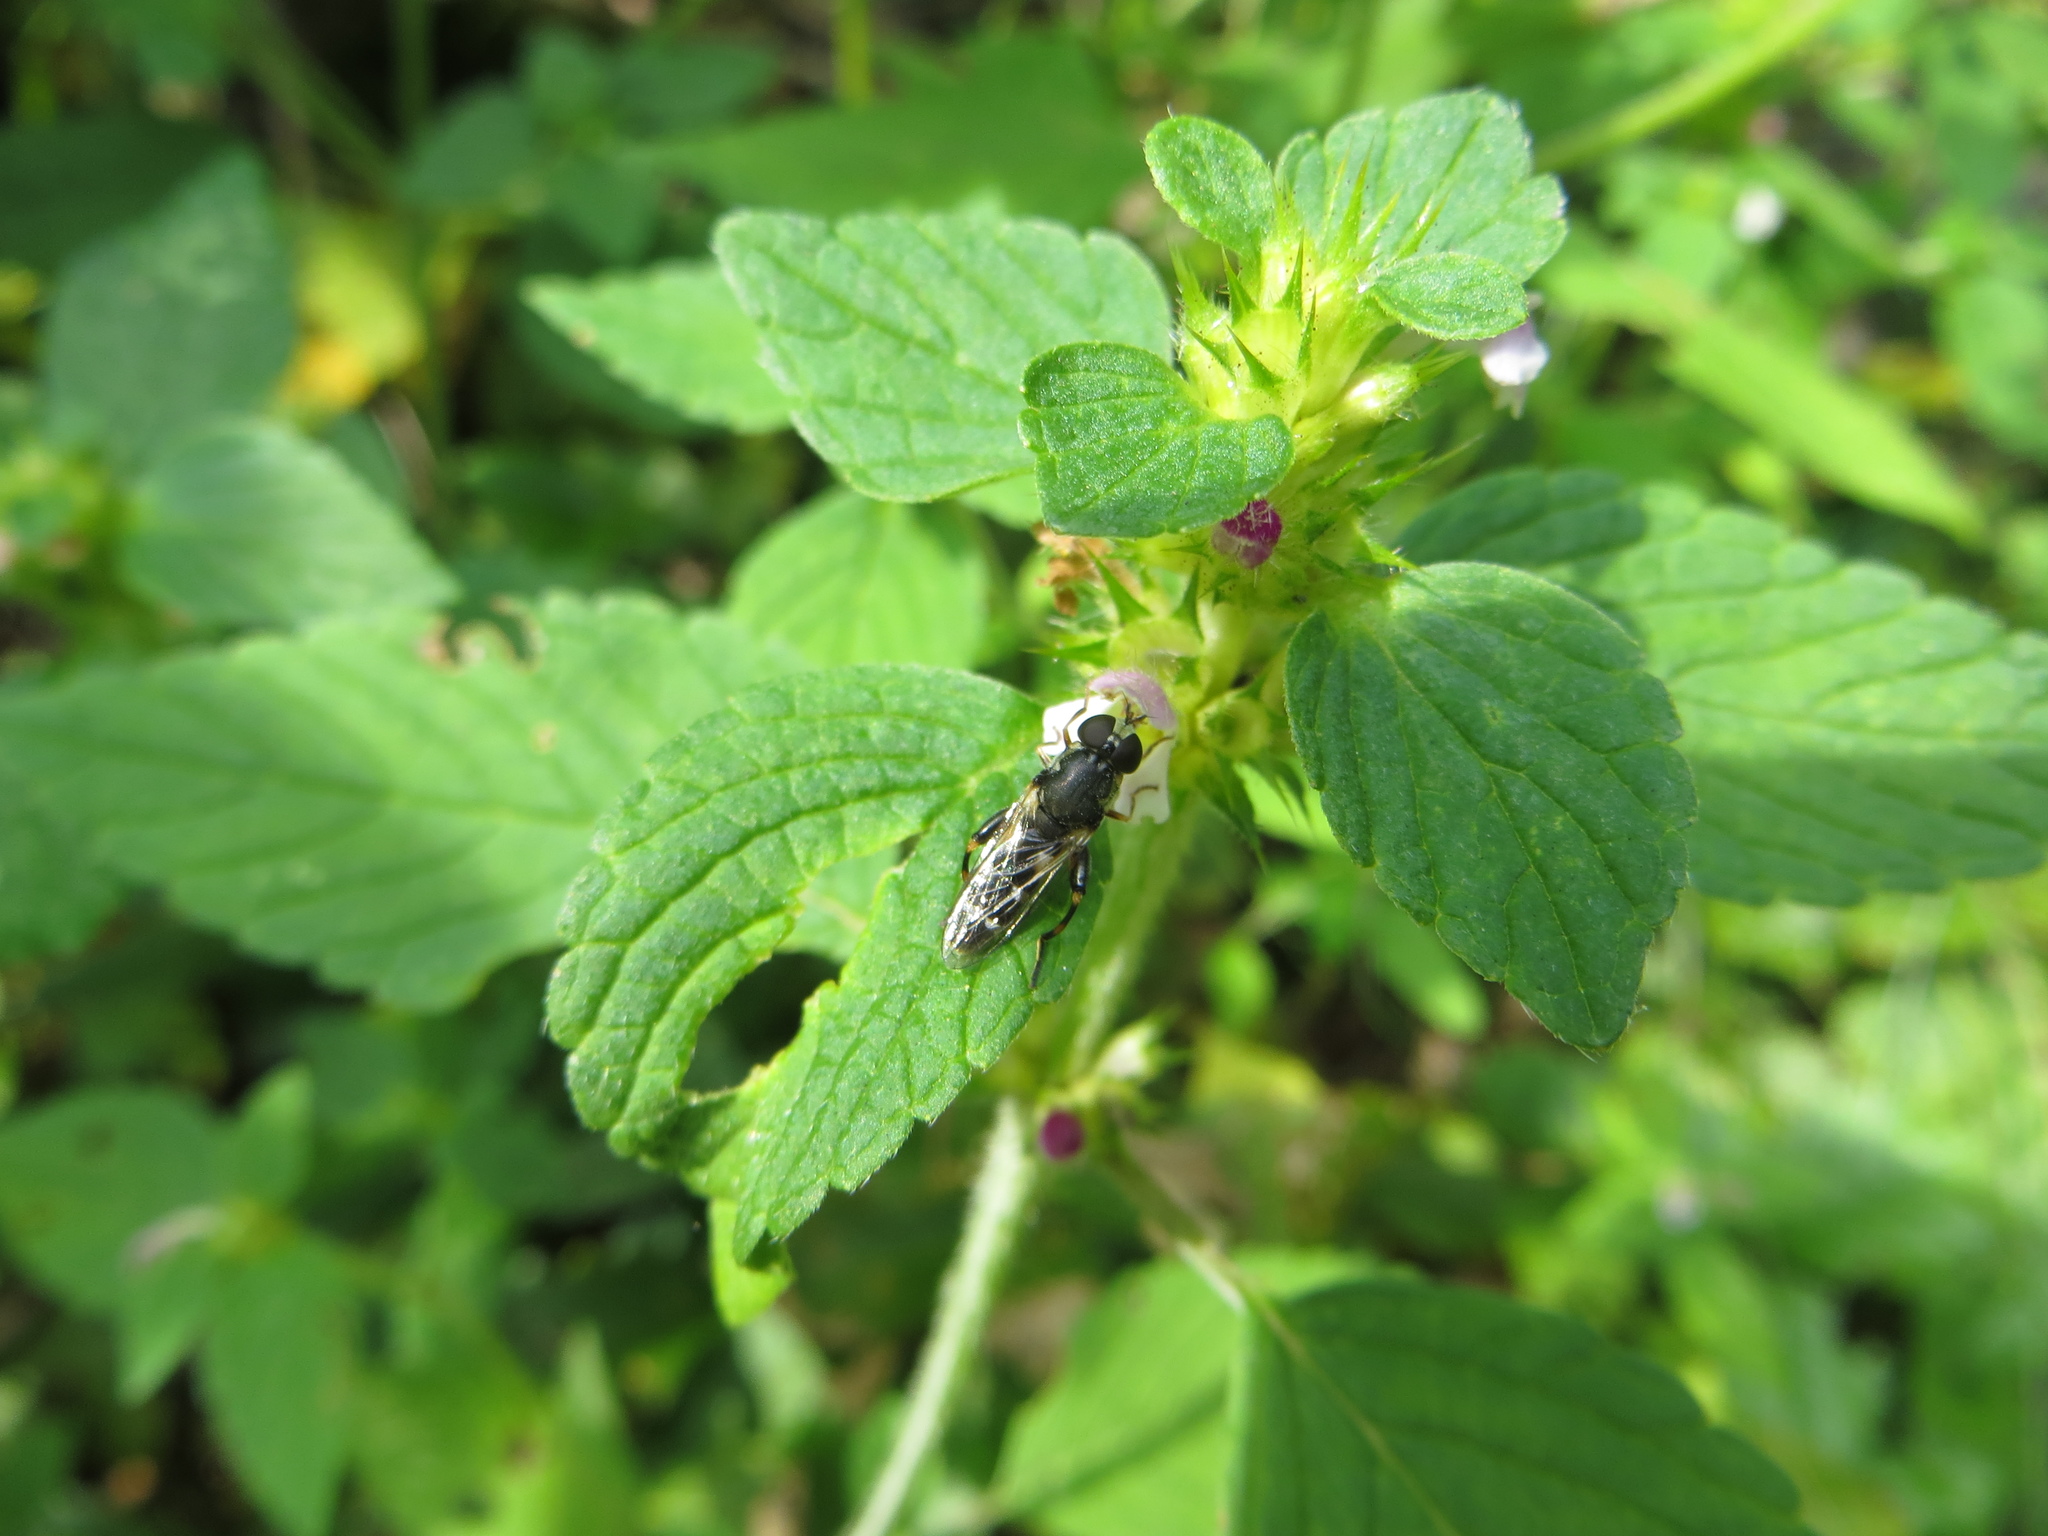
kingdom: Animalia
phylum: Arthropoda
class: Insecta
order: Diptera
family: Syrphidae
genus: Syritta
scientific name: Syritta pipiens
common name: Hover fly
